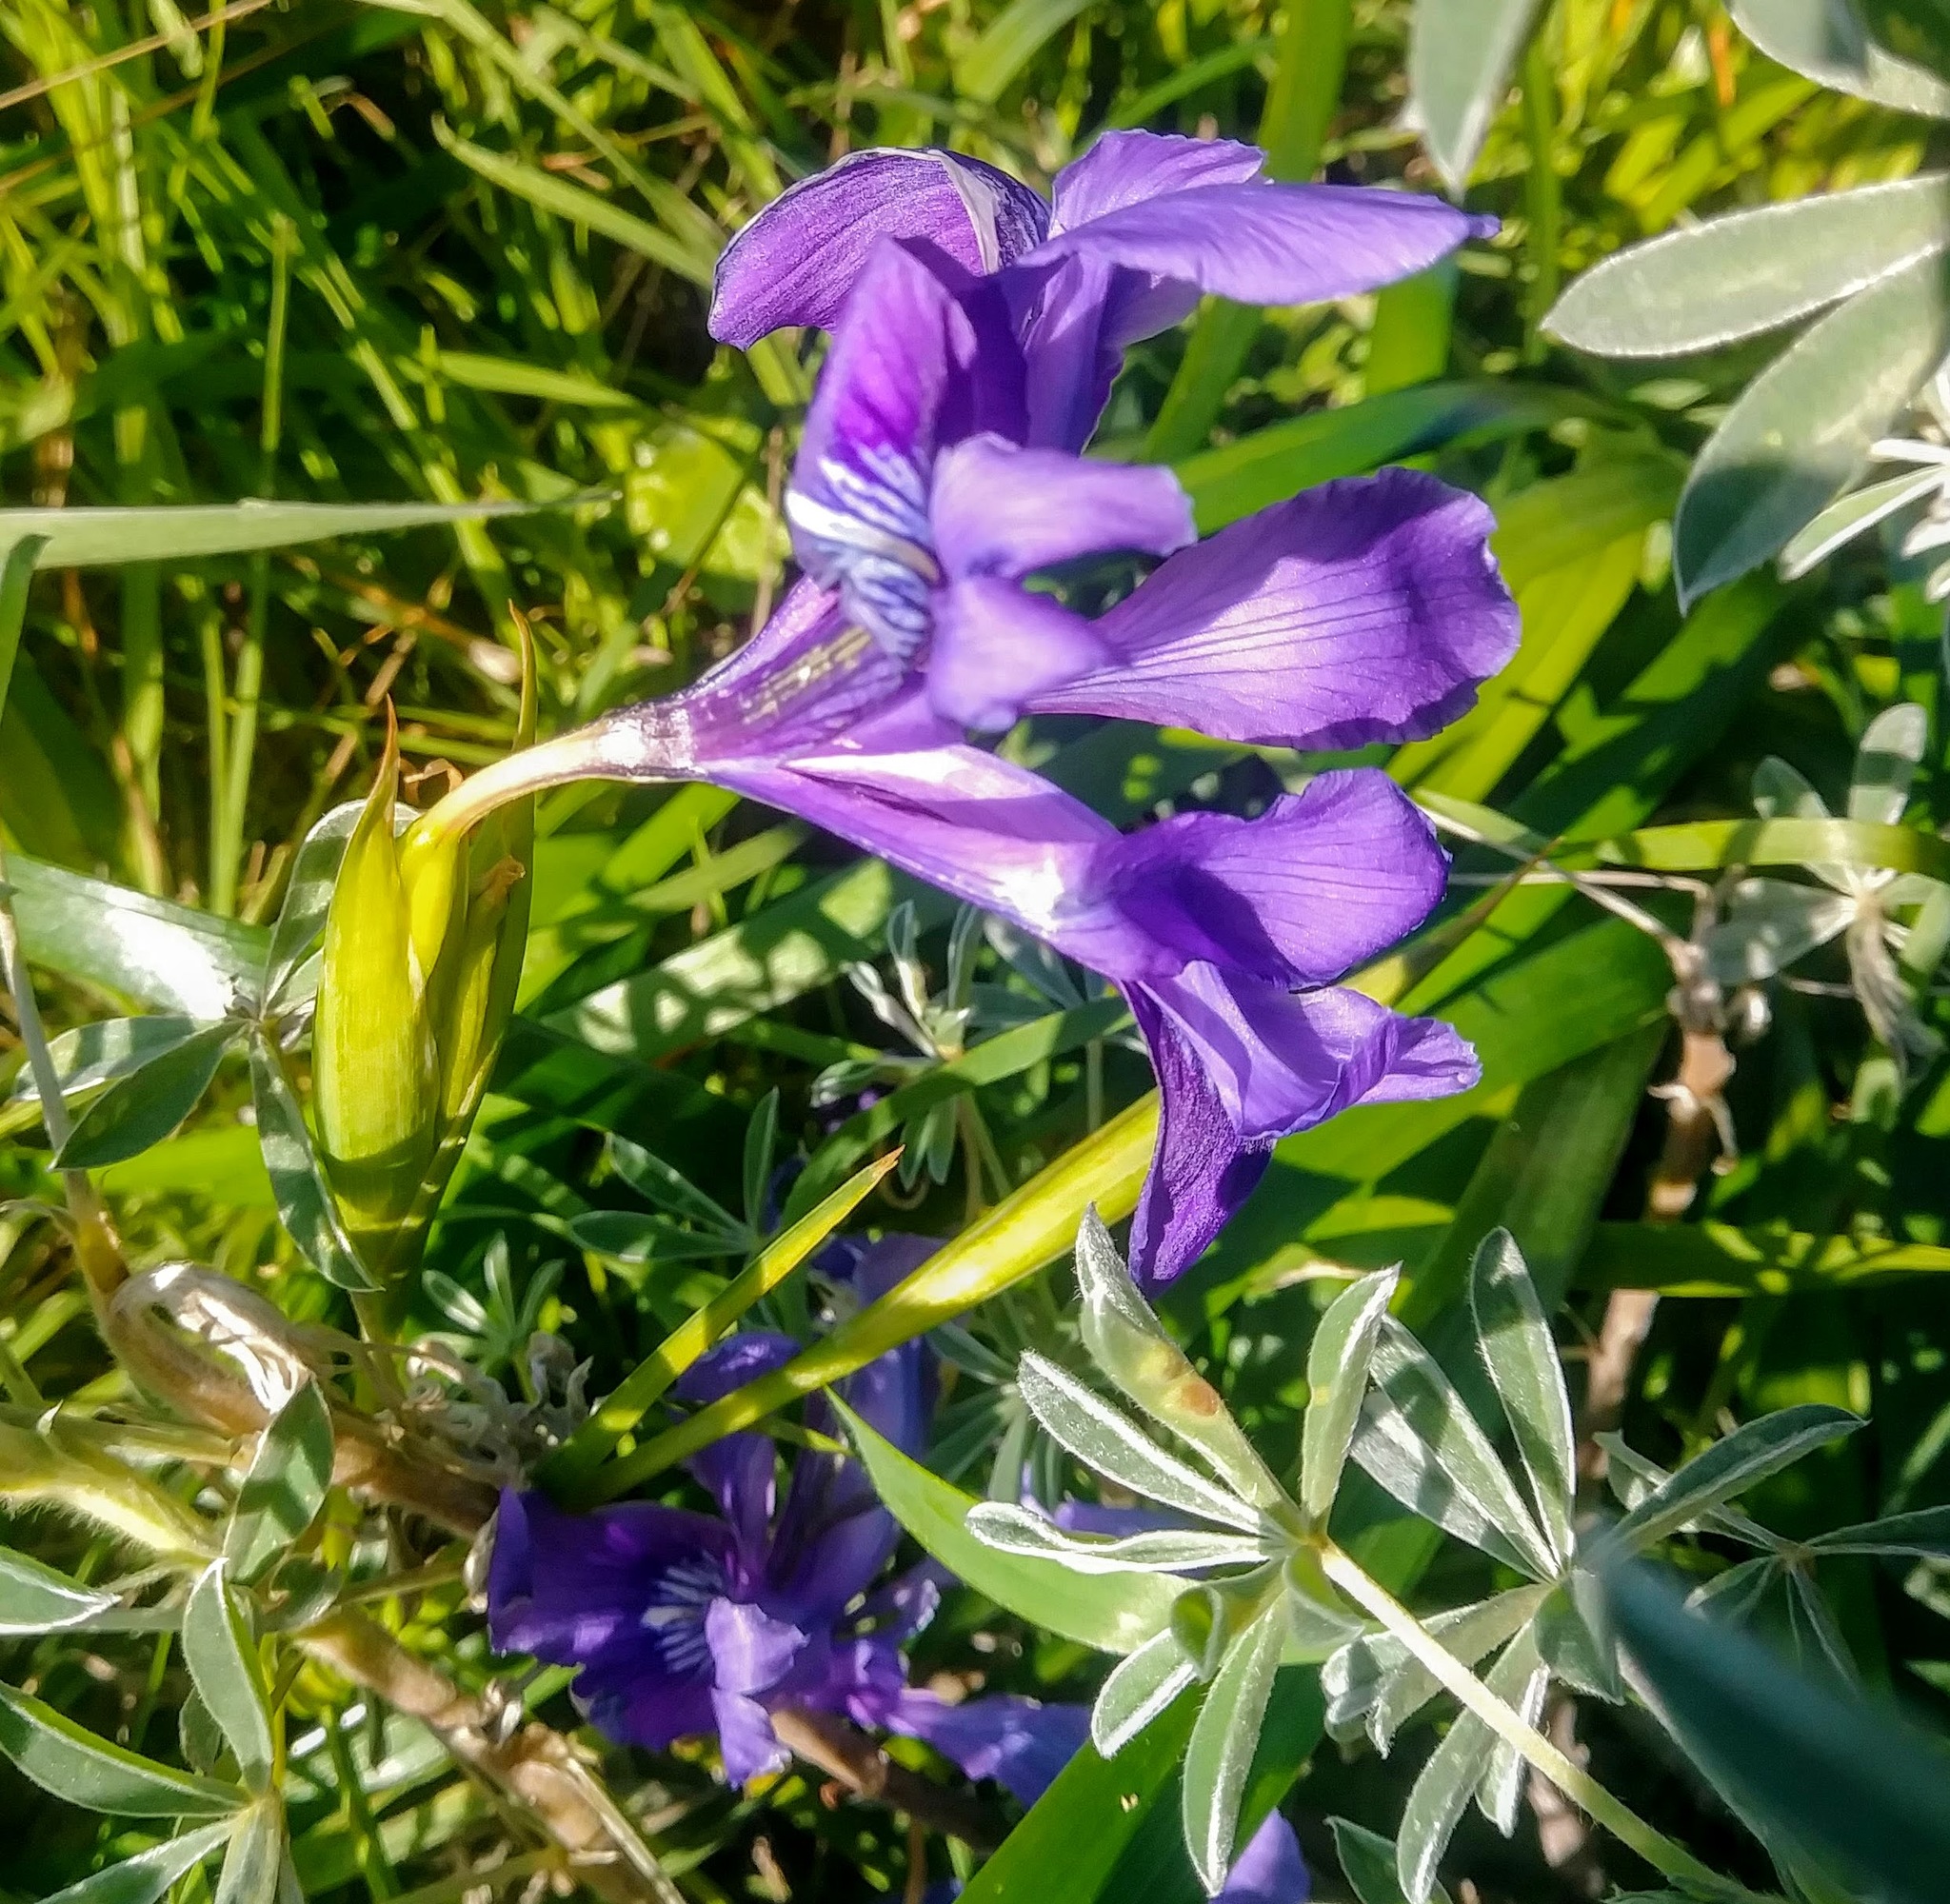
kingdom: Plantae
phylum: Tracheophyta
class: Liliopsida
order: Asparagales
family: Iridaceae
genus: Iris
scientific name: Iris douglasiana
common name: Marin iris
